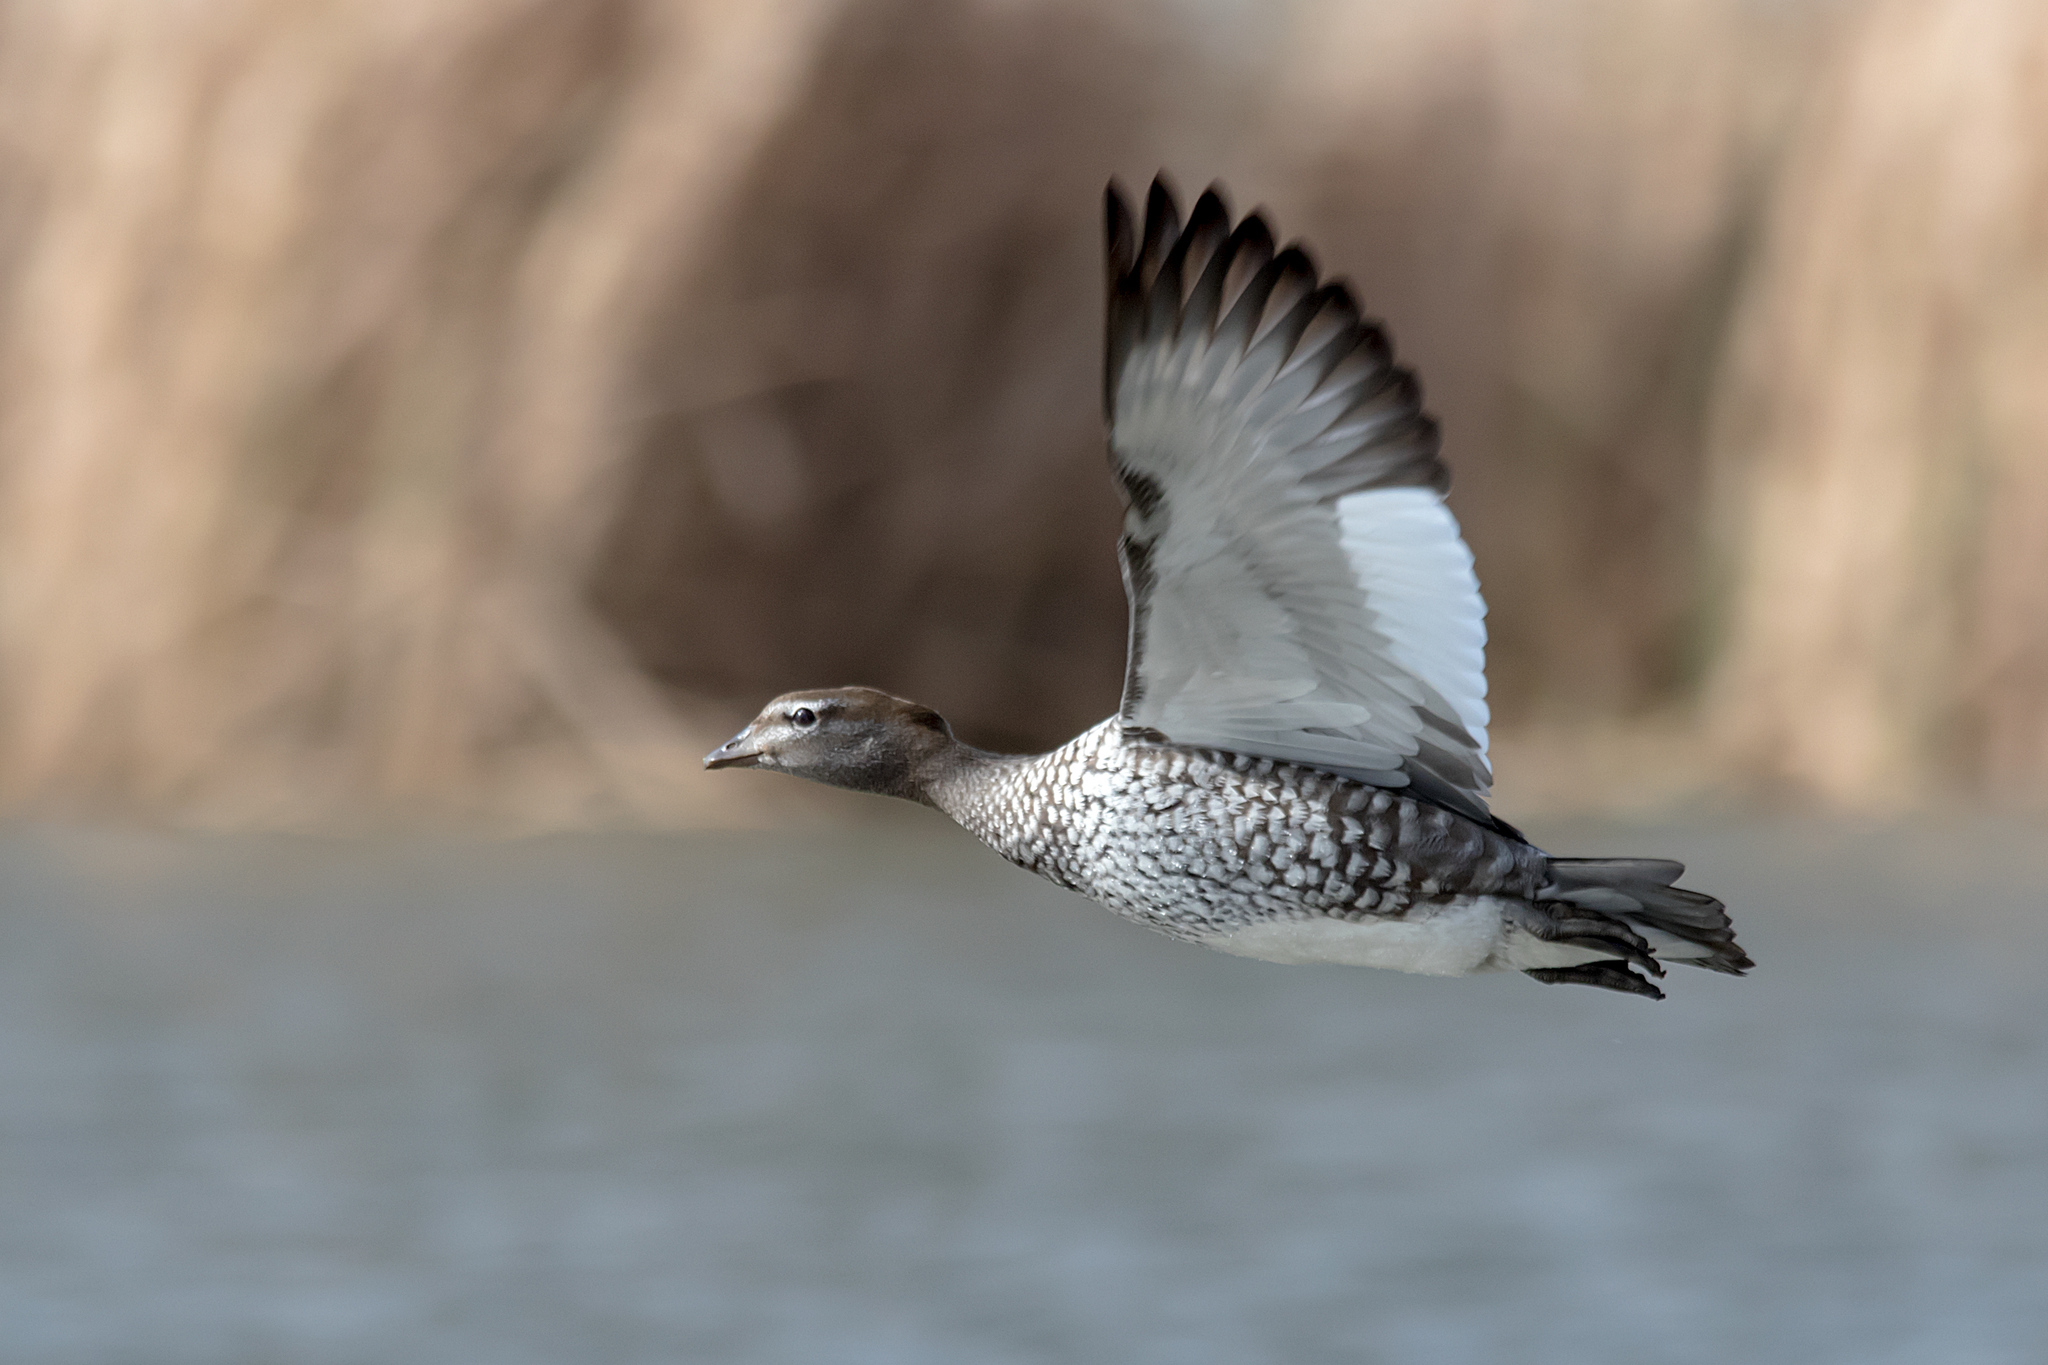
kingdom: Animalia
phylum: Chordata
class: Aves
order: Anseriformes
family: Anatidae
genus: Chenonetta
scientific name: Chenonetta jubata
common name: Maned duck
